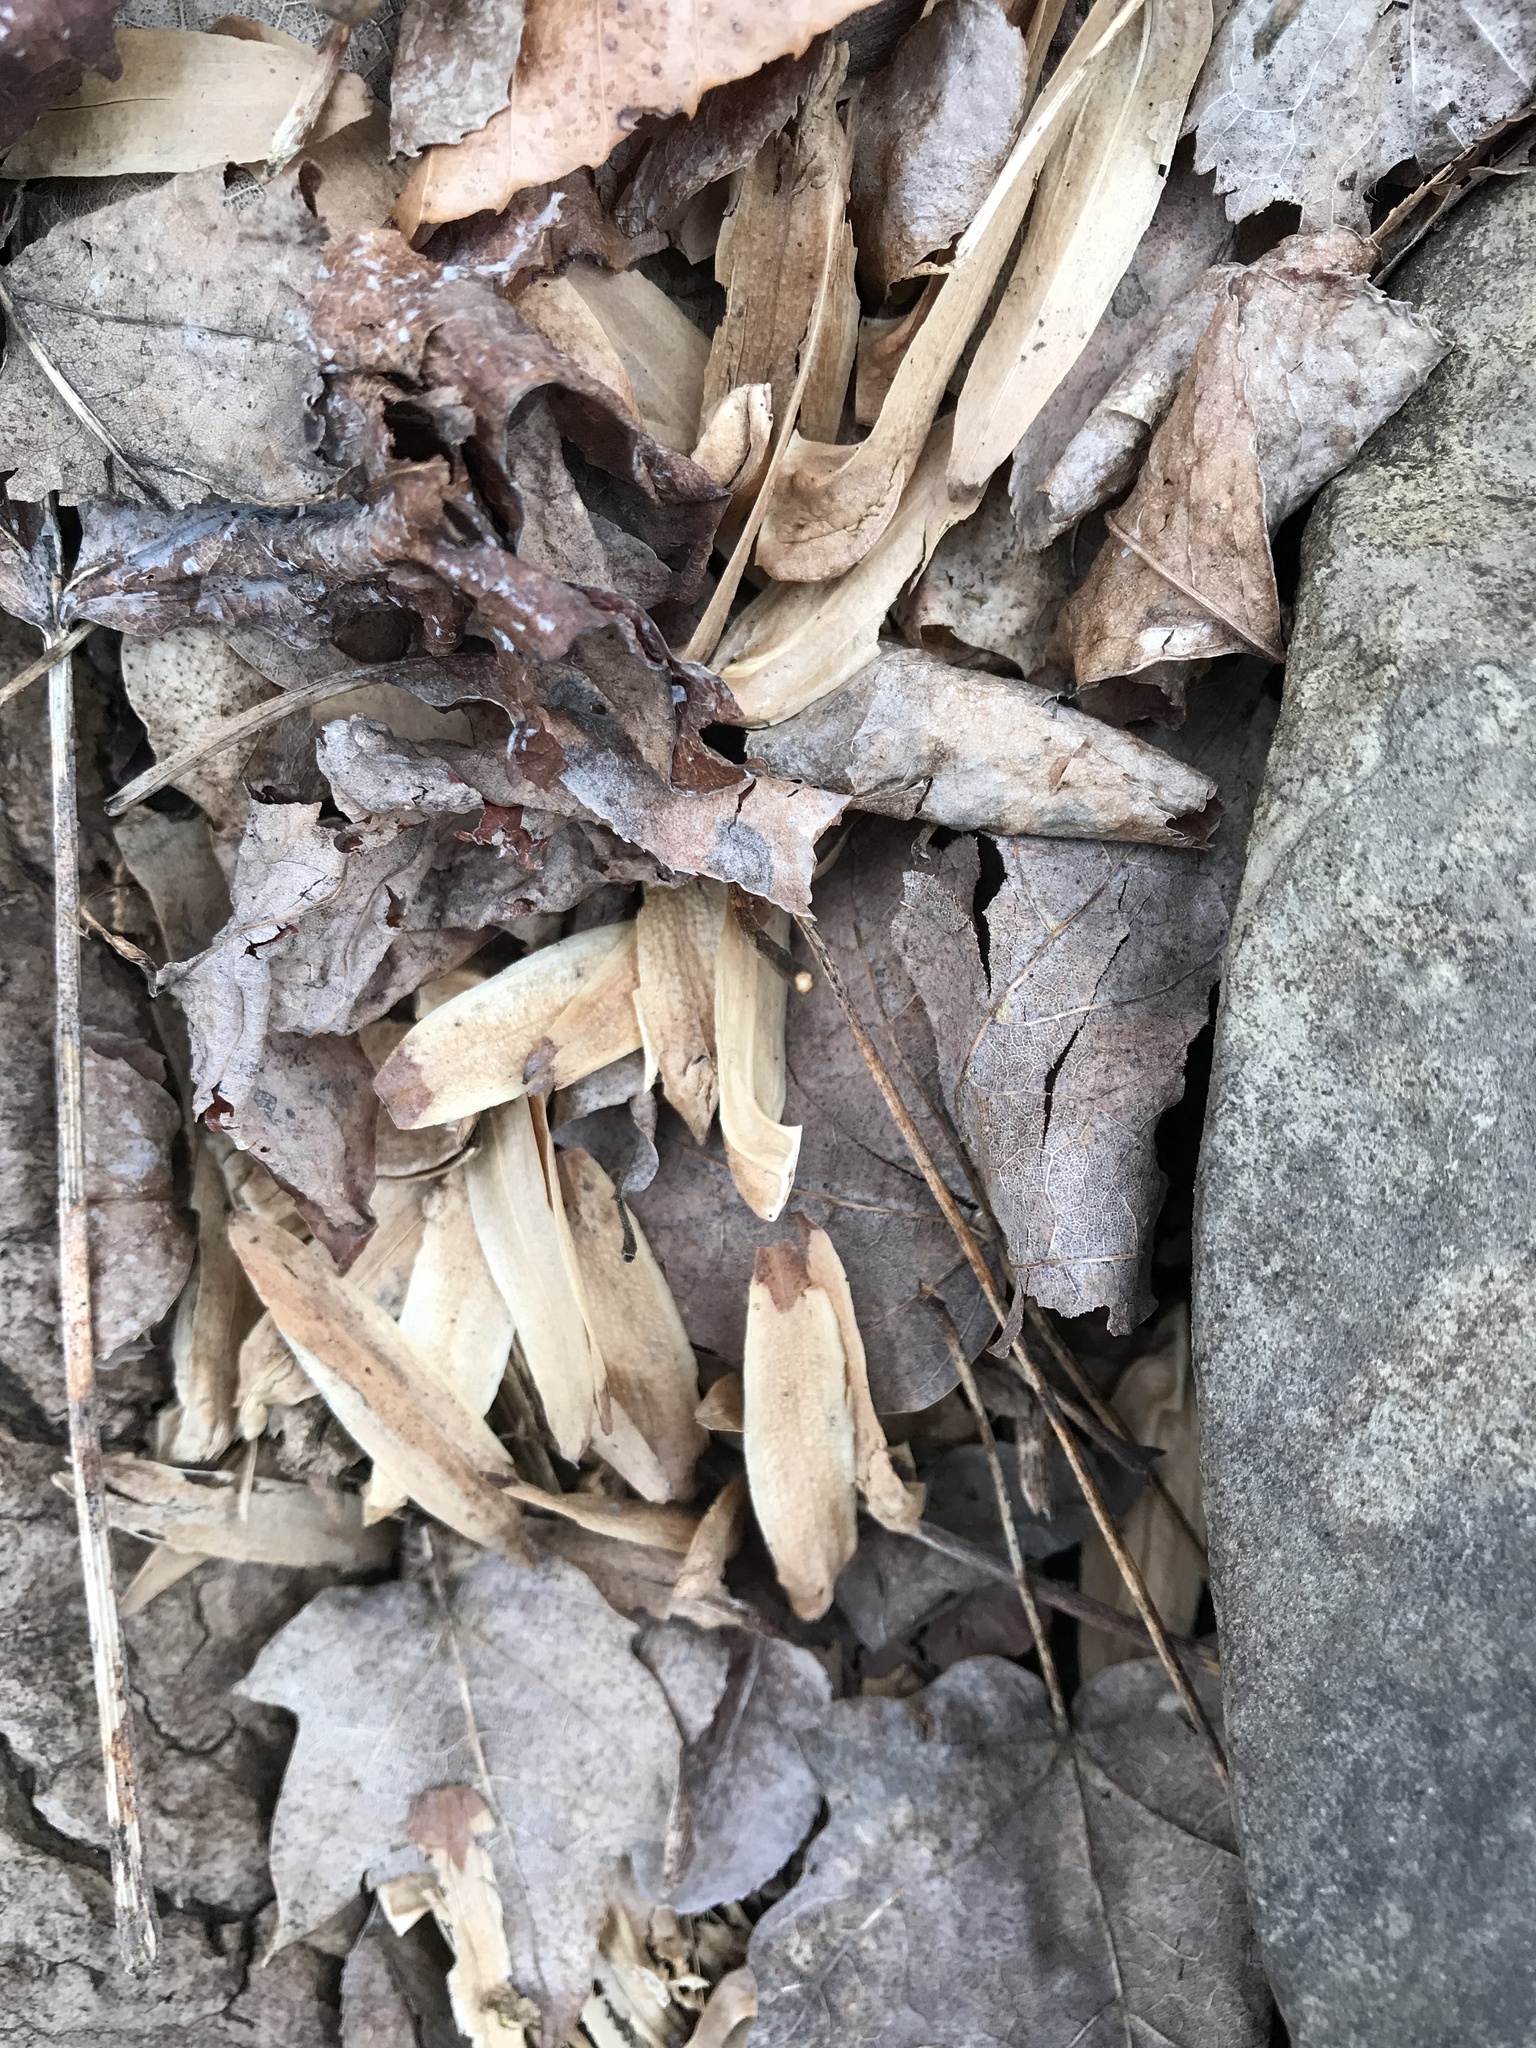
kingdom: Plantae
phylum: Tracheophyta
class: Magnoliopsida
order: Magnoliales
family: Magnoliaceae
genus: Liriodendron
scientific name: Liriodendron tulipifera
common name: Tulip tree
